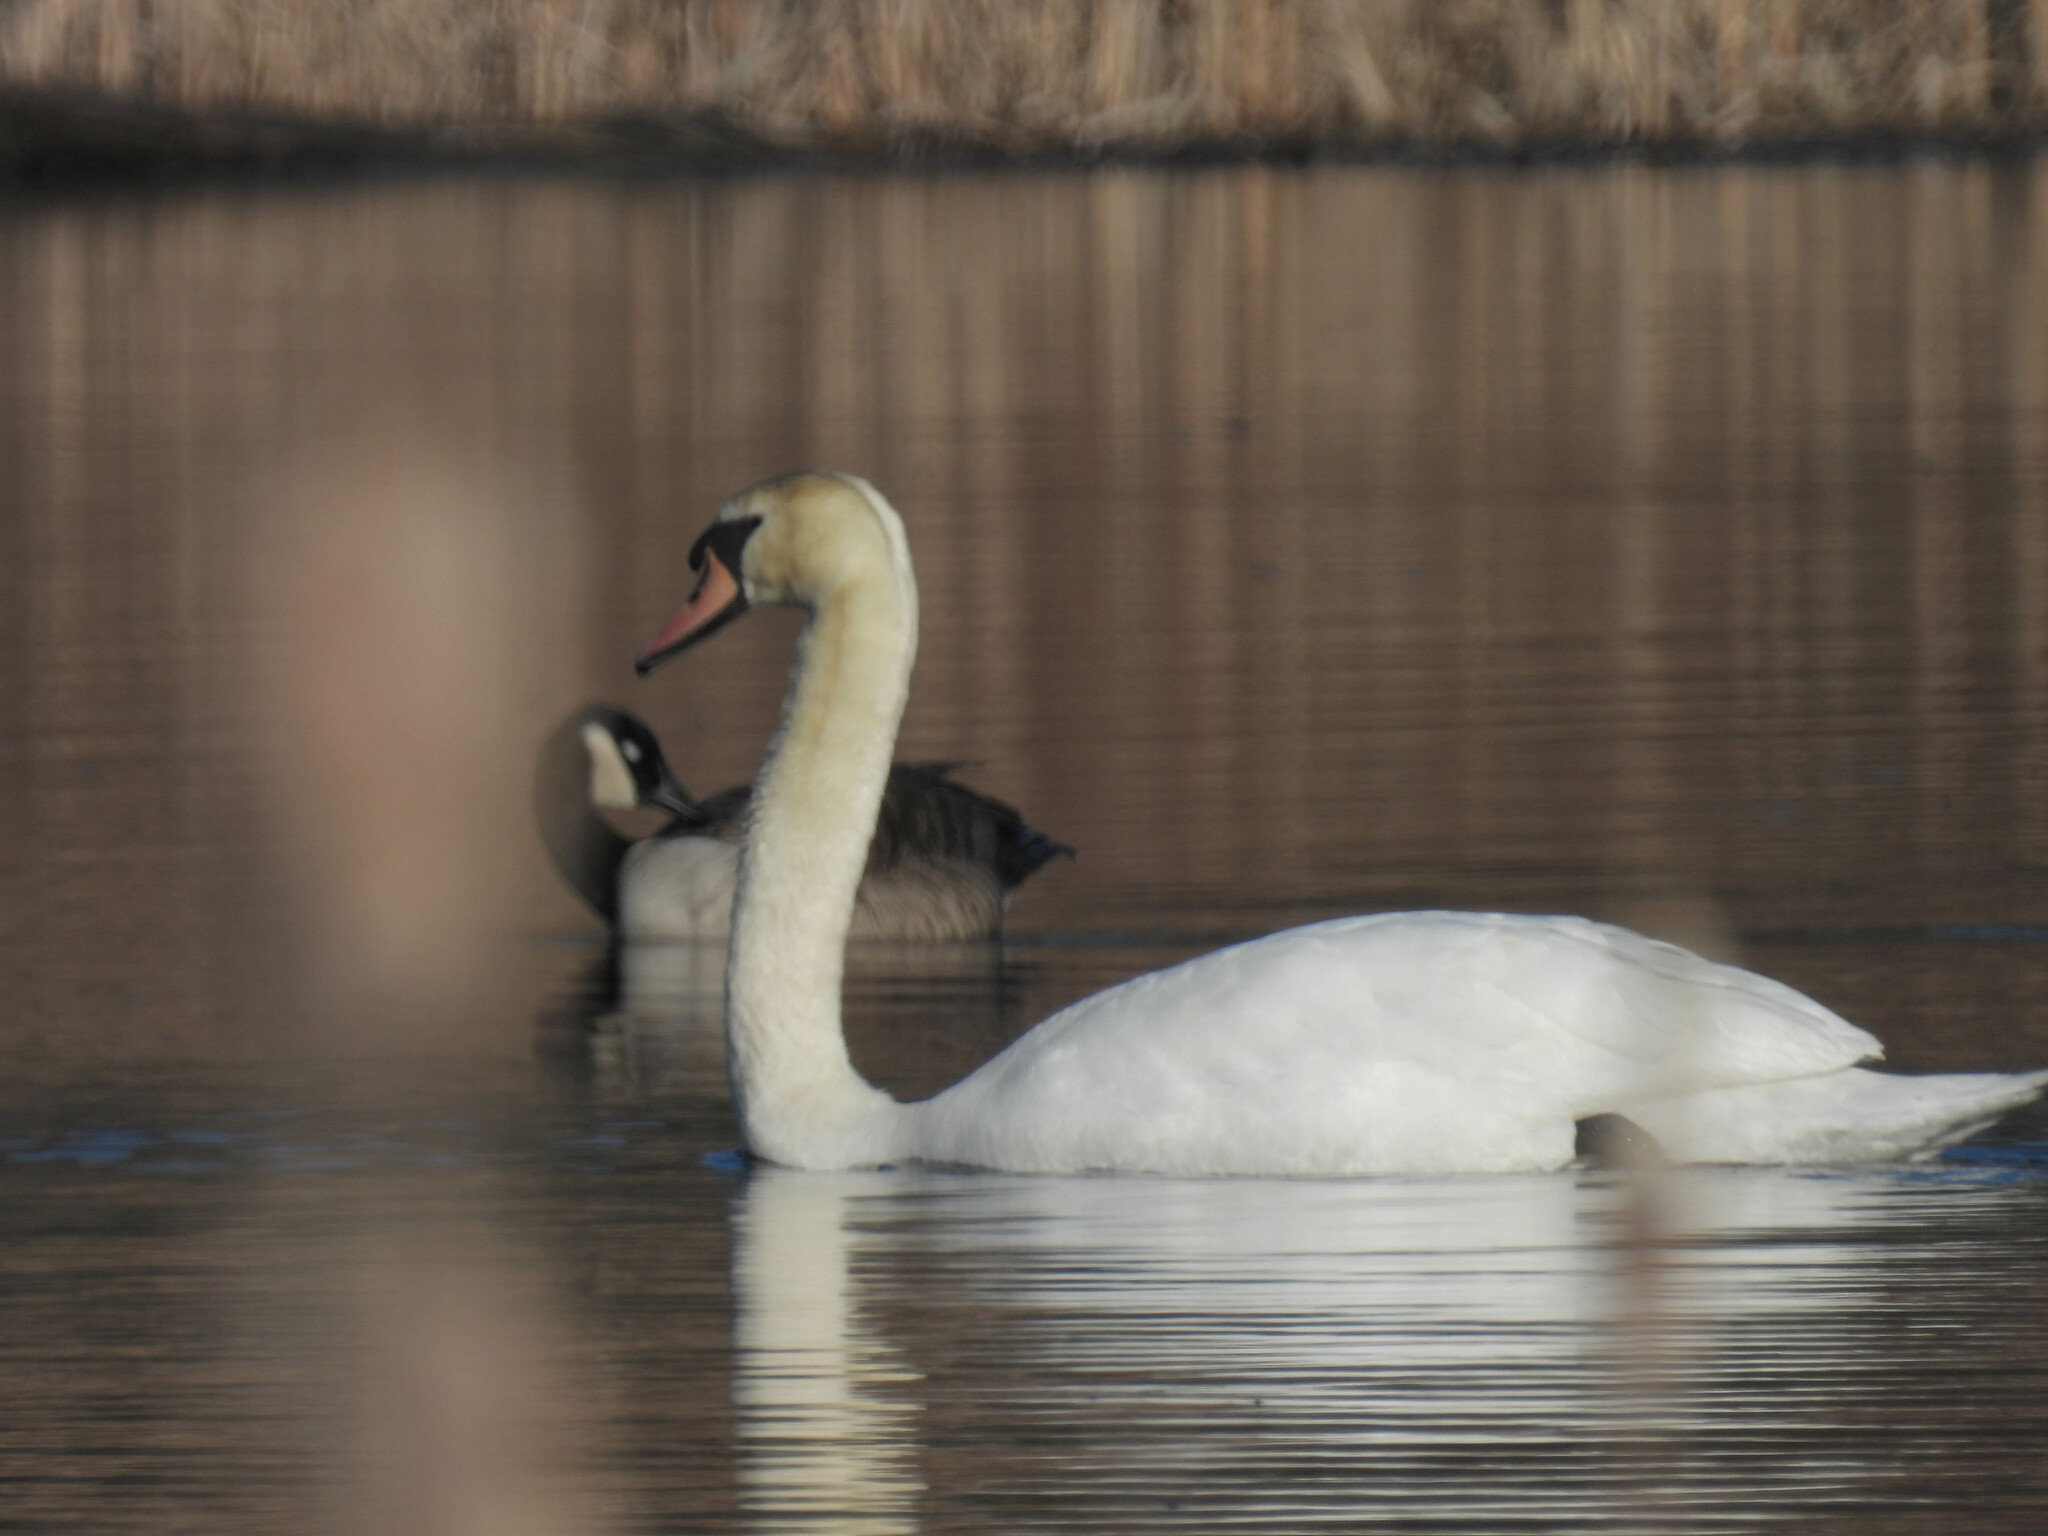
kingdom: Animalia
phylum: Chordata
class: Aves
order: Anseriformes
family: Anatidae
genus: Cygnus
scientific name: Cygnus olor
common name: Mute swan
